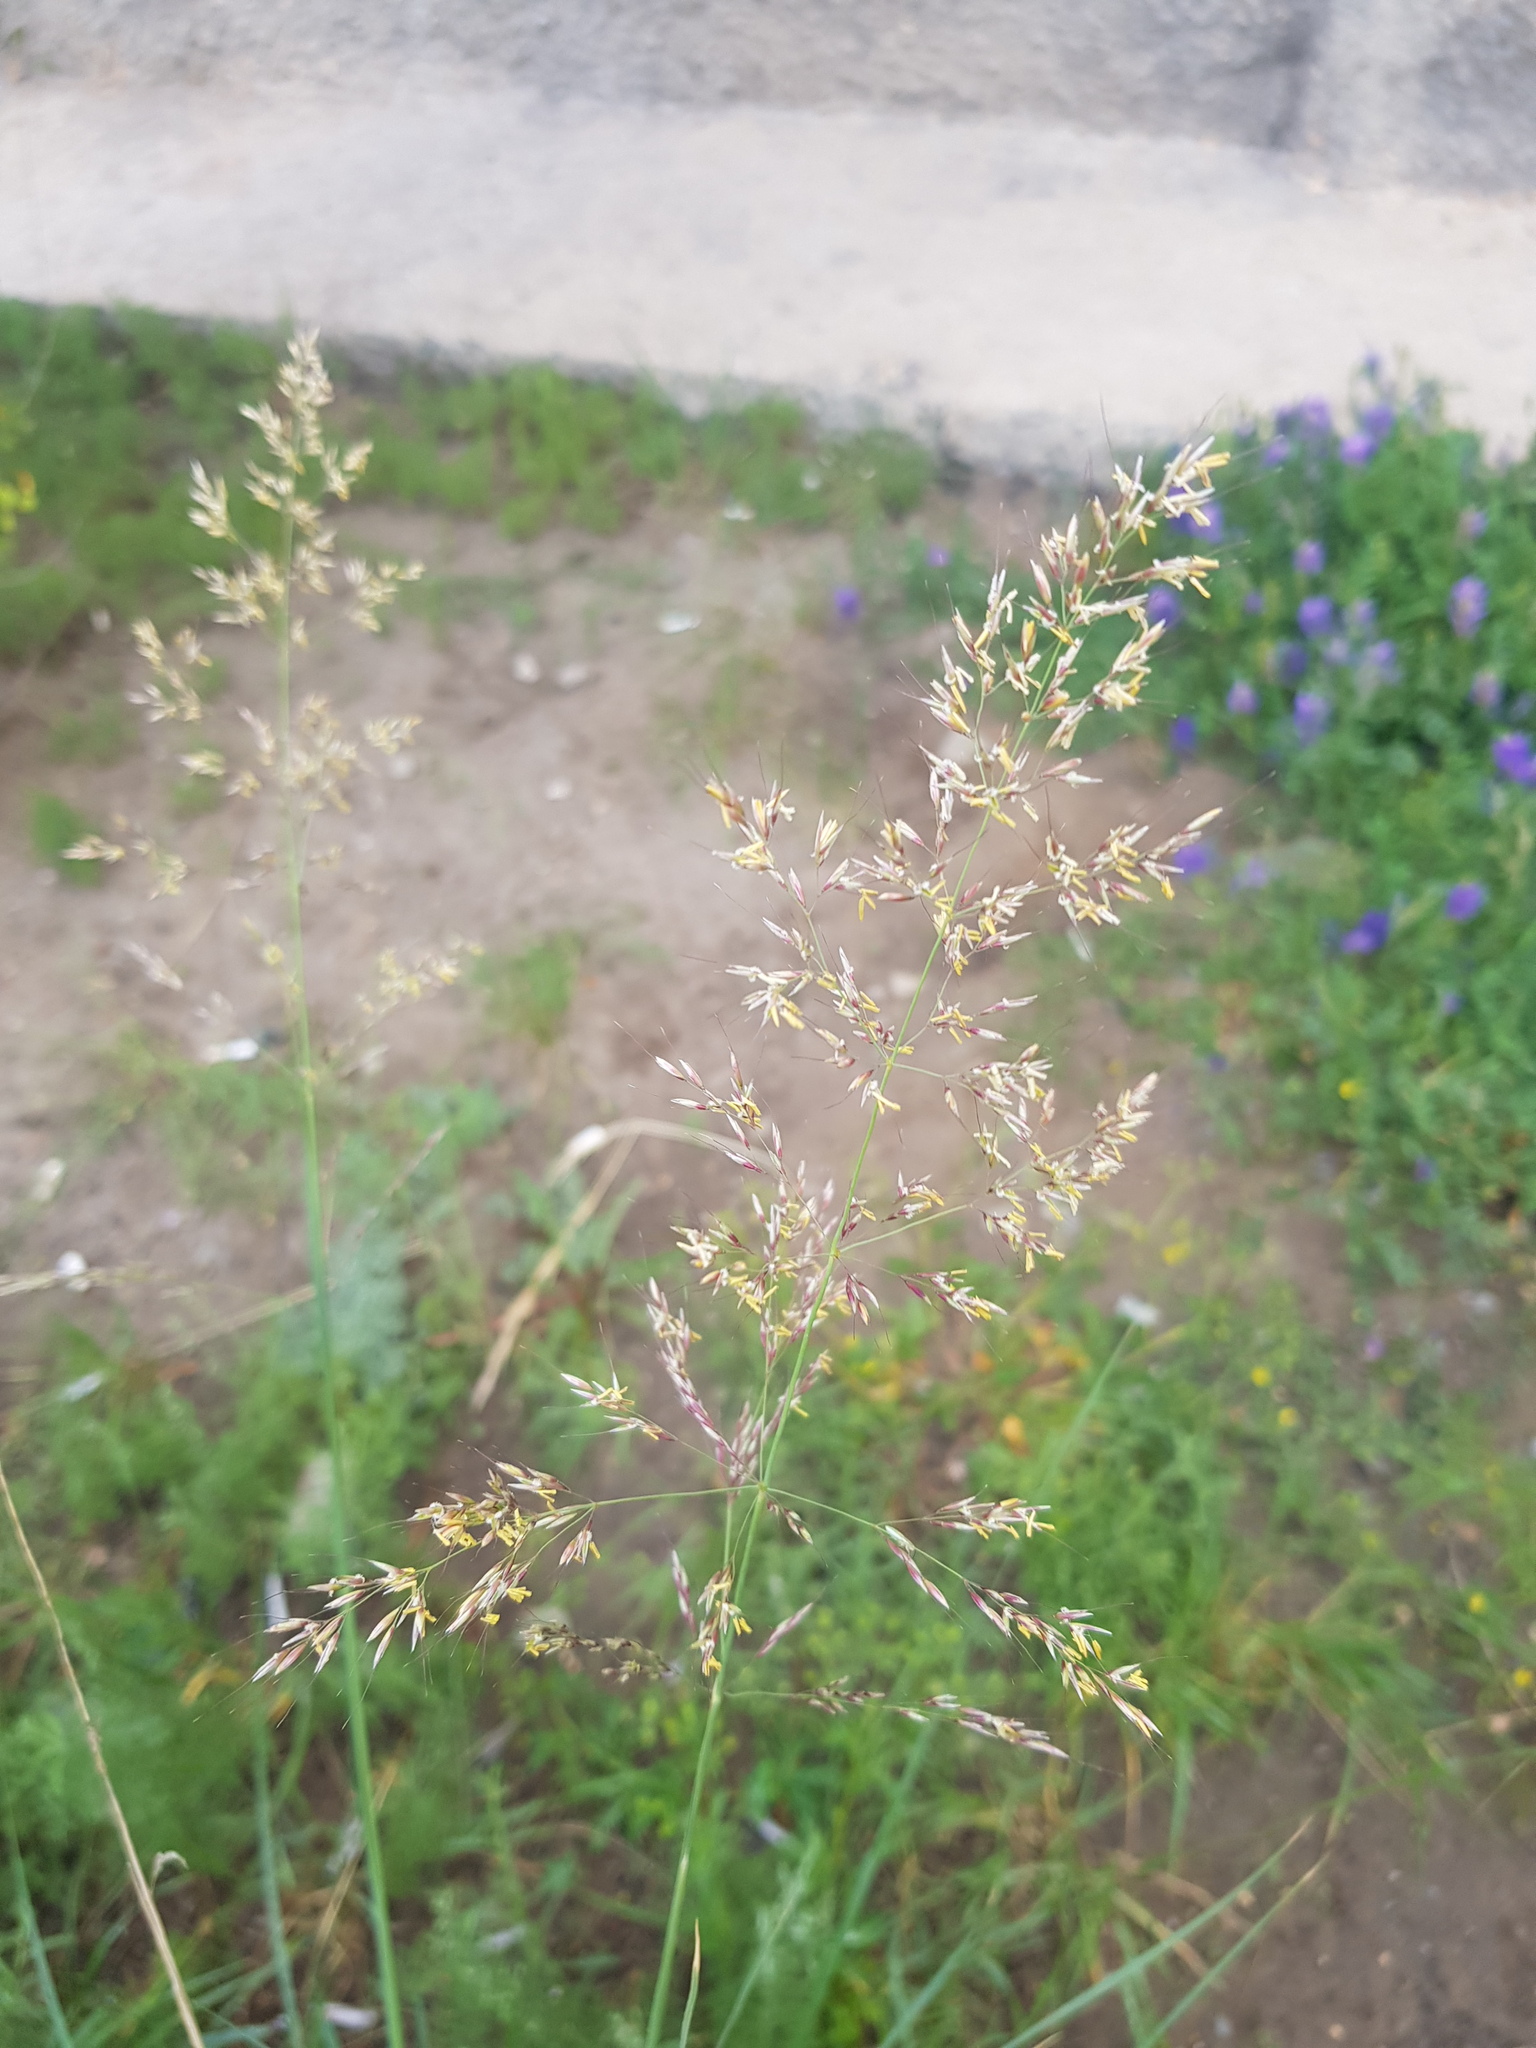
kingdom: Plantae
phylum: Tracheophyta
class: Liliopsida
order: Poales
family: Poaceae
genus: Neotrinia
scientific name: Neotrinia splendens
